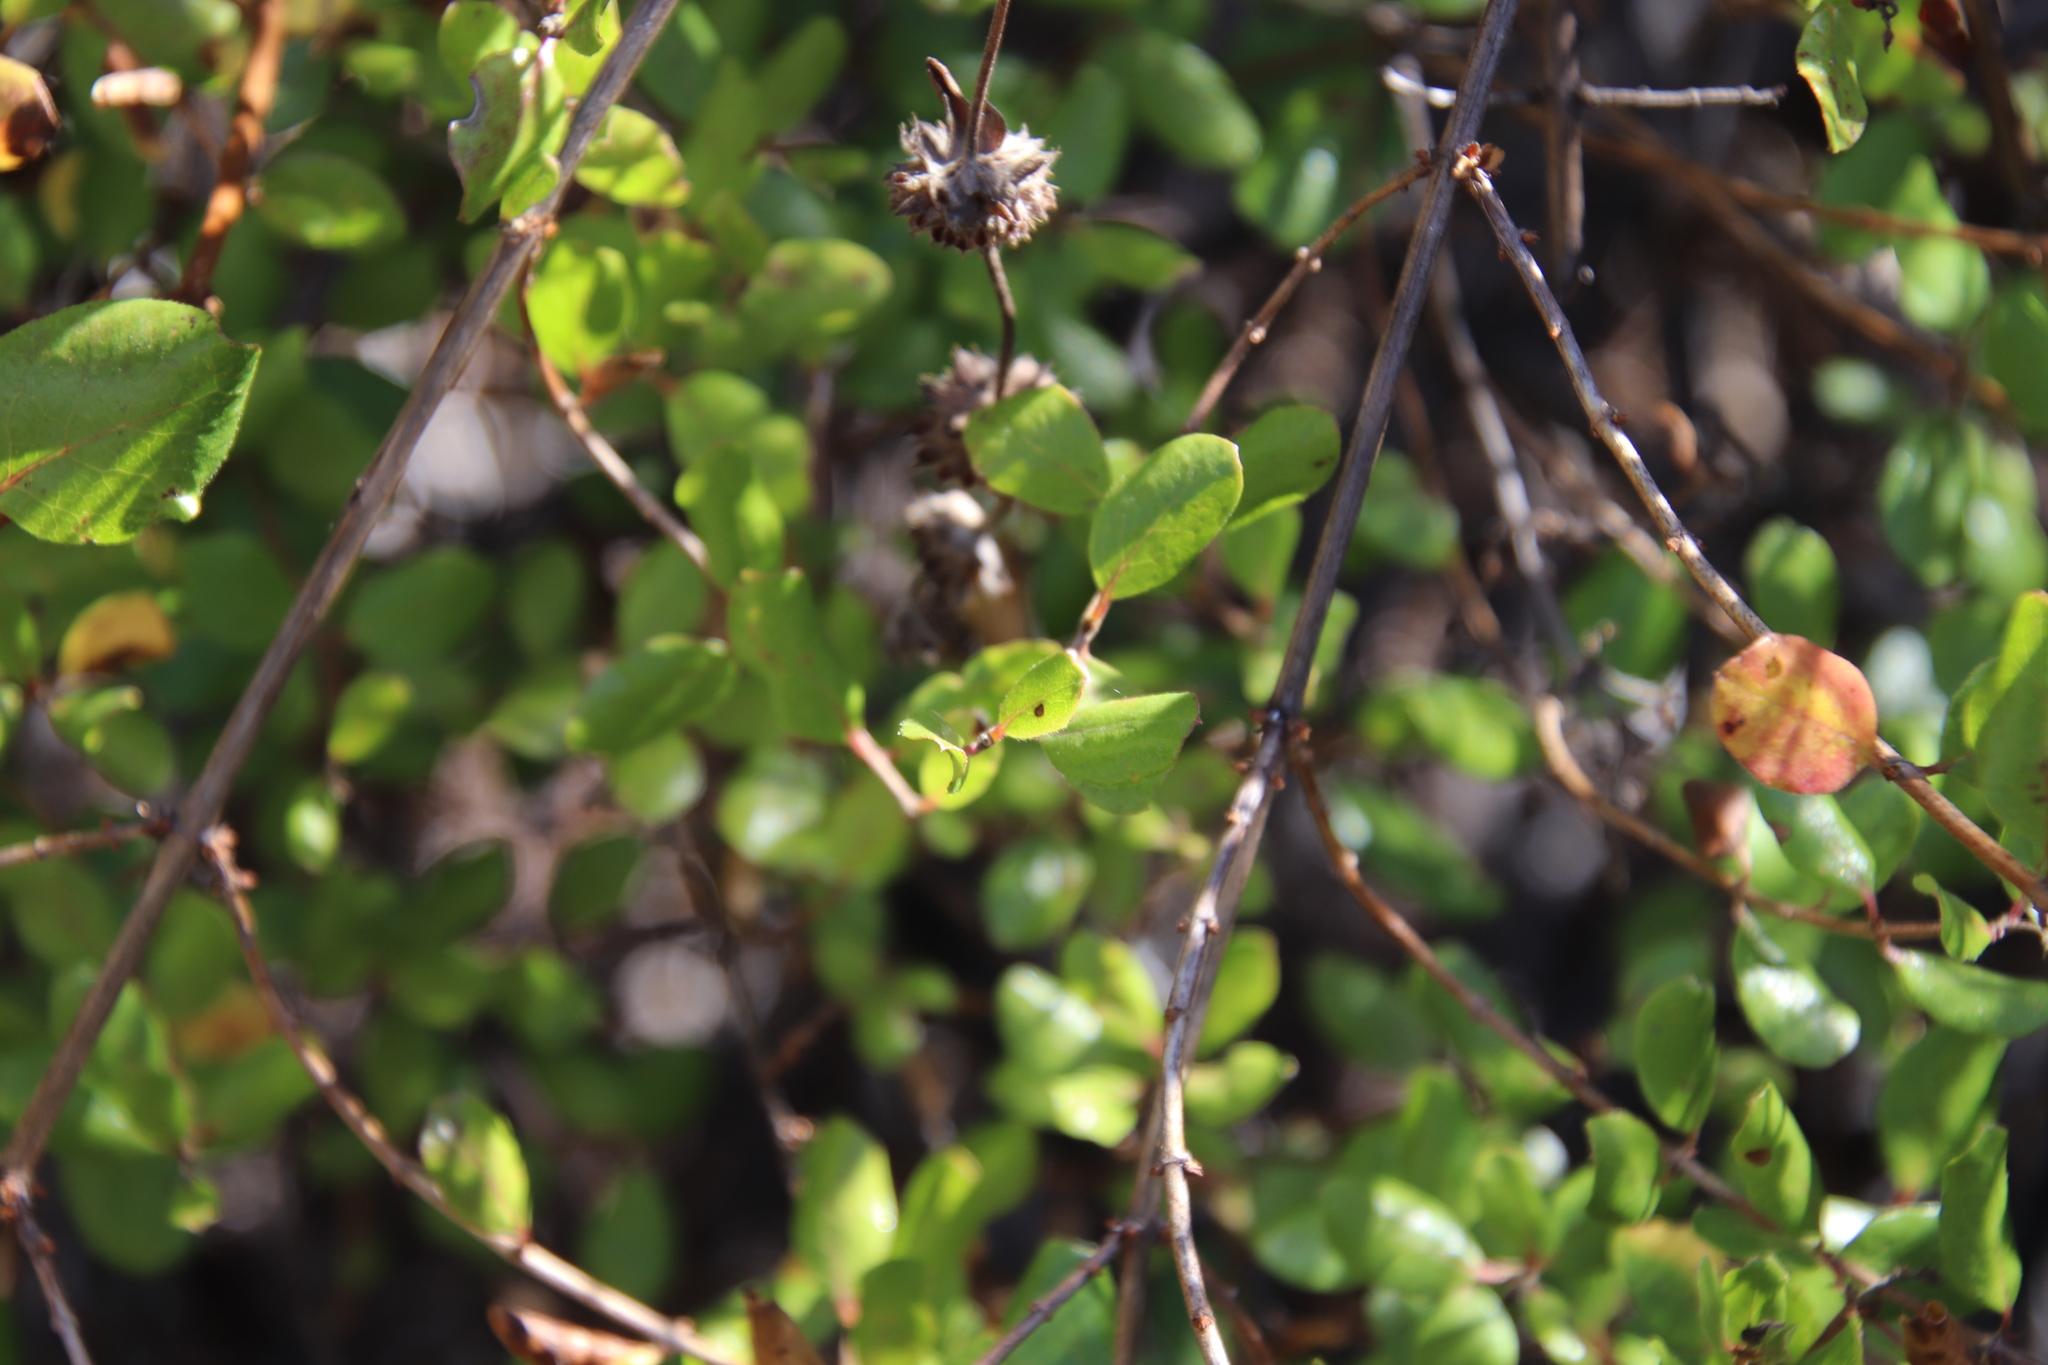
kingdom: Plantae
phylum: Tracheophyta
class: Magnoliopsida
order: Dipsacales
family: Caprifoliaceae
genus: Lonicera
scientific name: Lonicera subspicata
